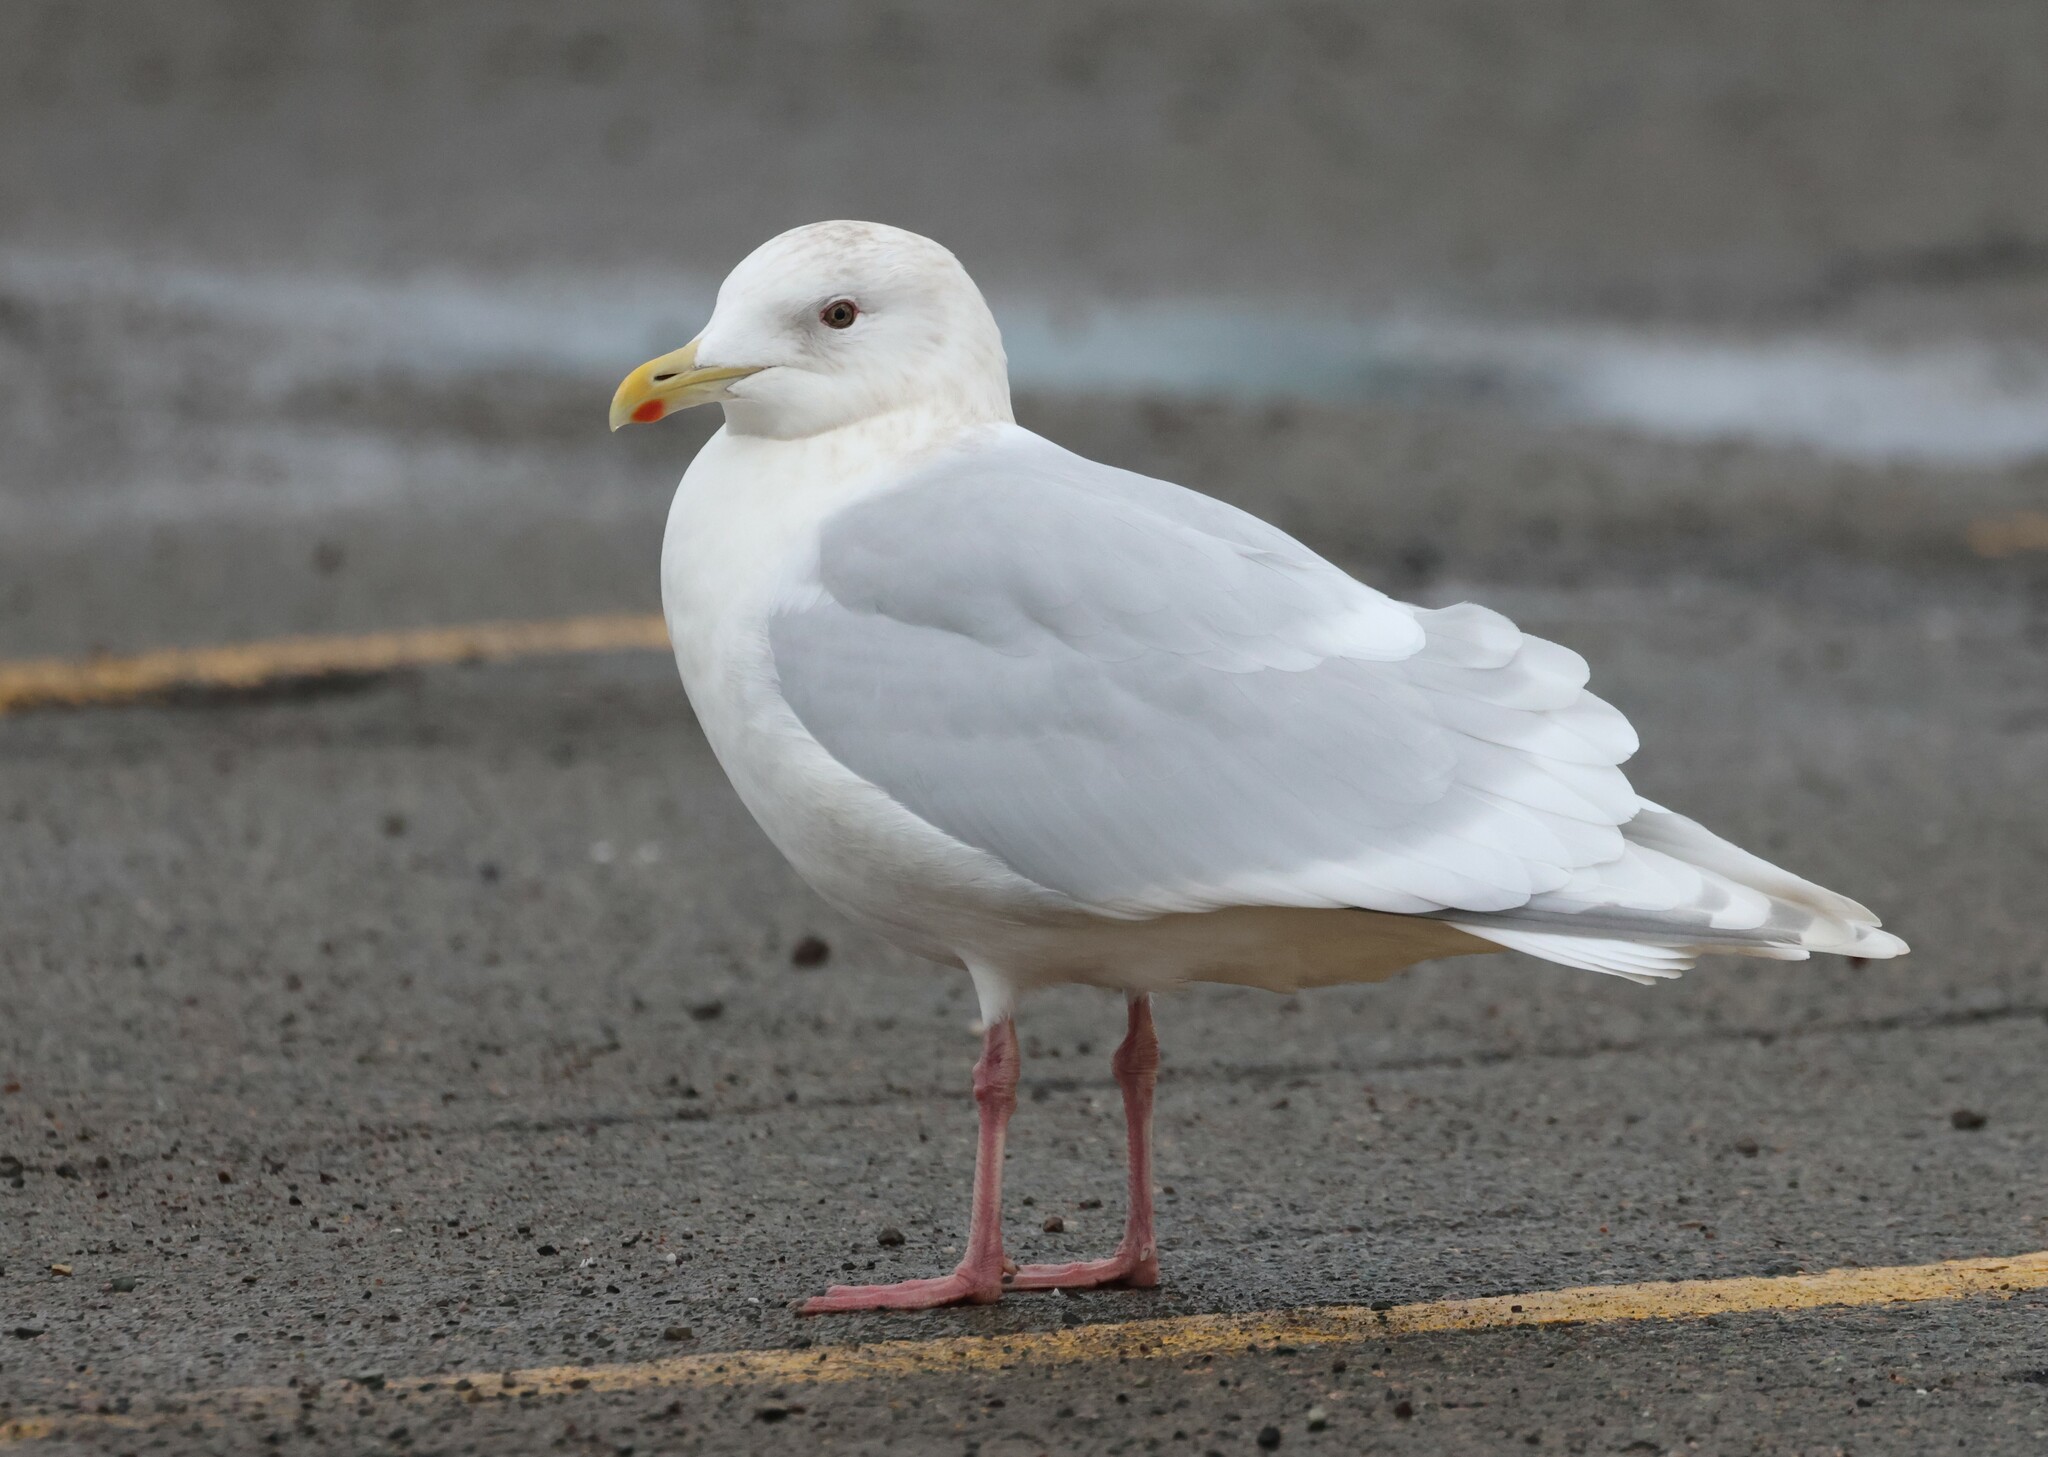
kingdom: Animalia
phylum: Chordata
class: Aves
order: Charadriiformes
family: Laridae
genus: Larus
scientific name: Larus glaucoides
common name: Iceland gull
